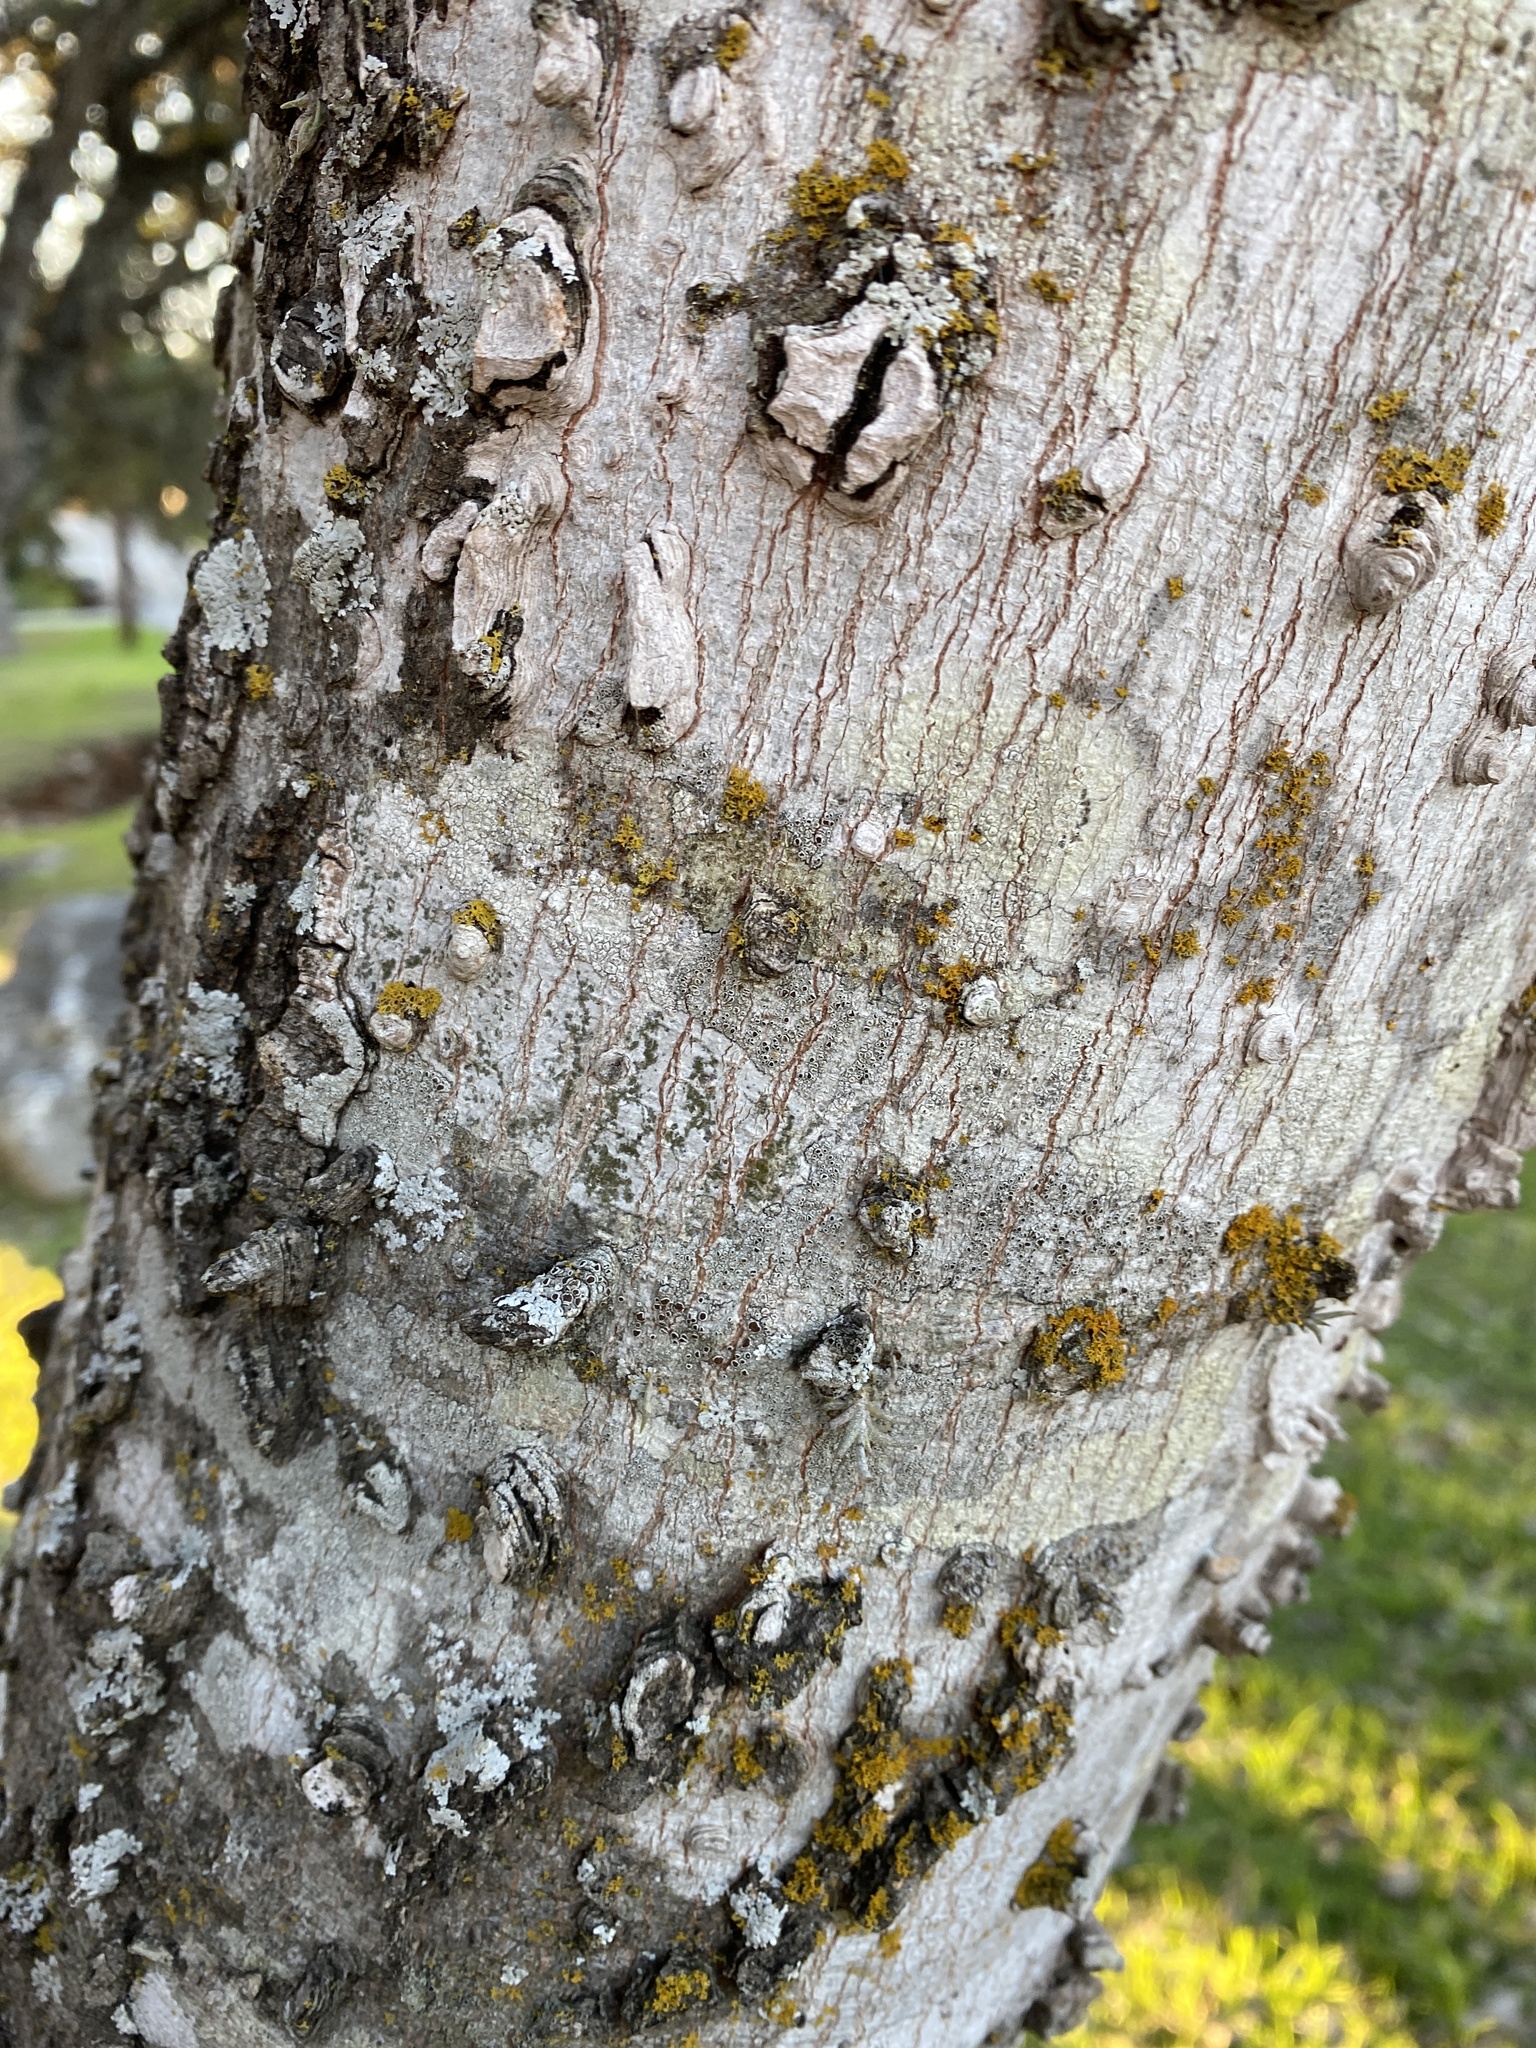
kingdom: Plantae
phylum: Tracheophyta
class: Magnoliopsida
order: Rosales
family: Cannabaceae
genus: Celtis
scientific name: Celtis laevigata
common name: Sugarberry
